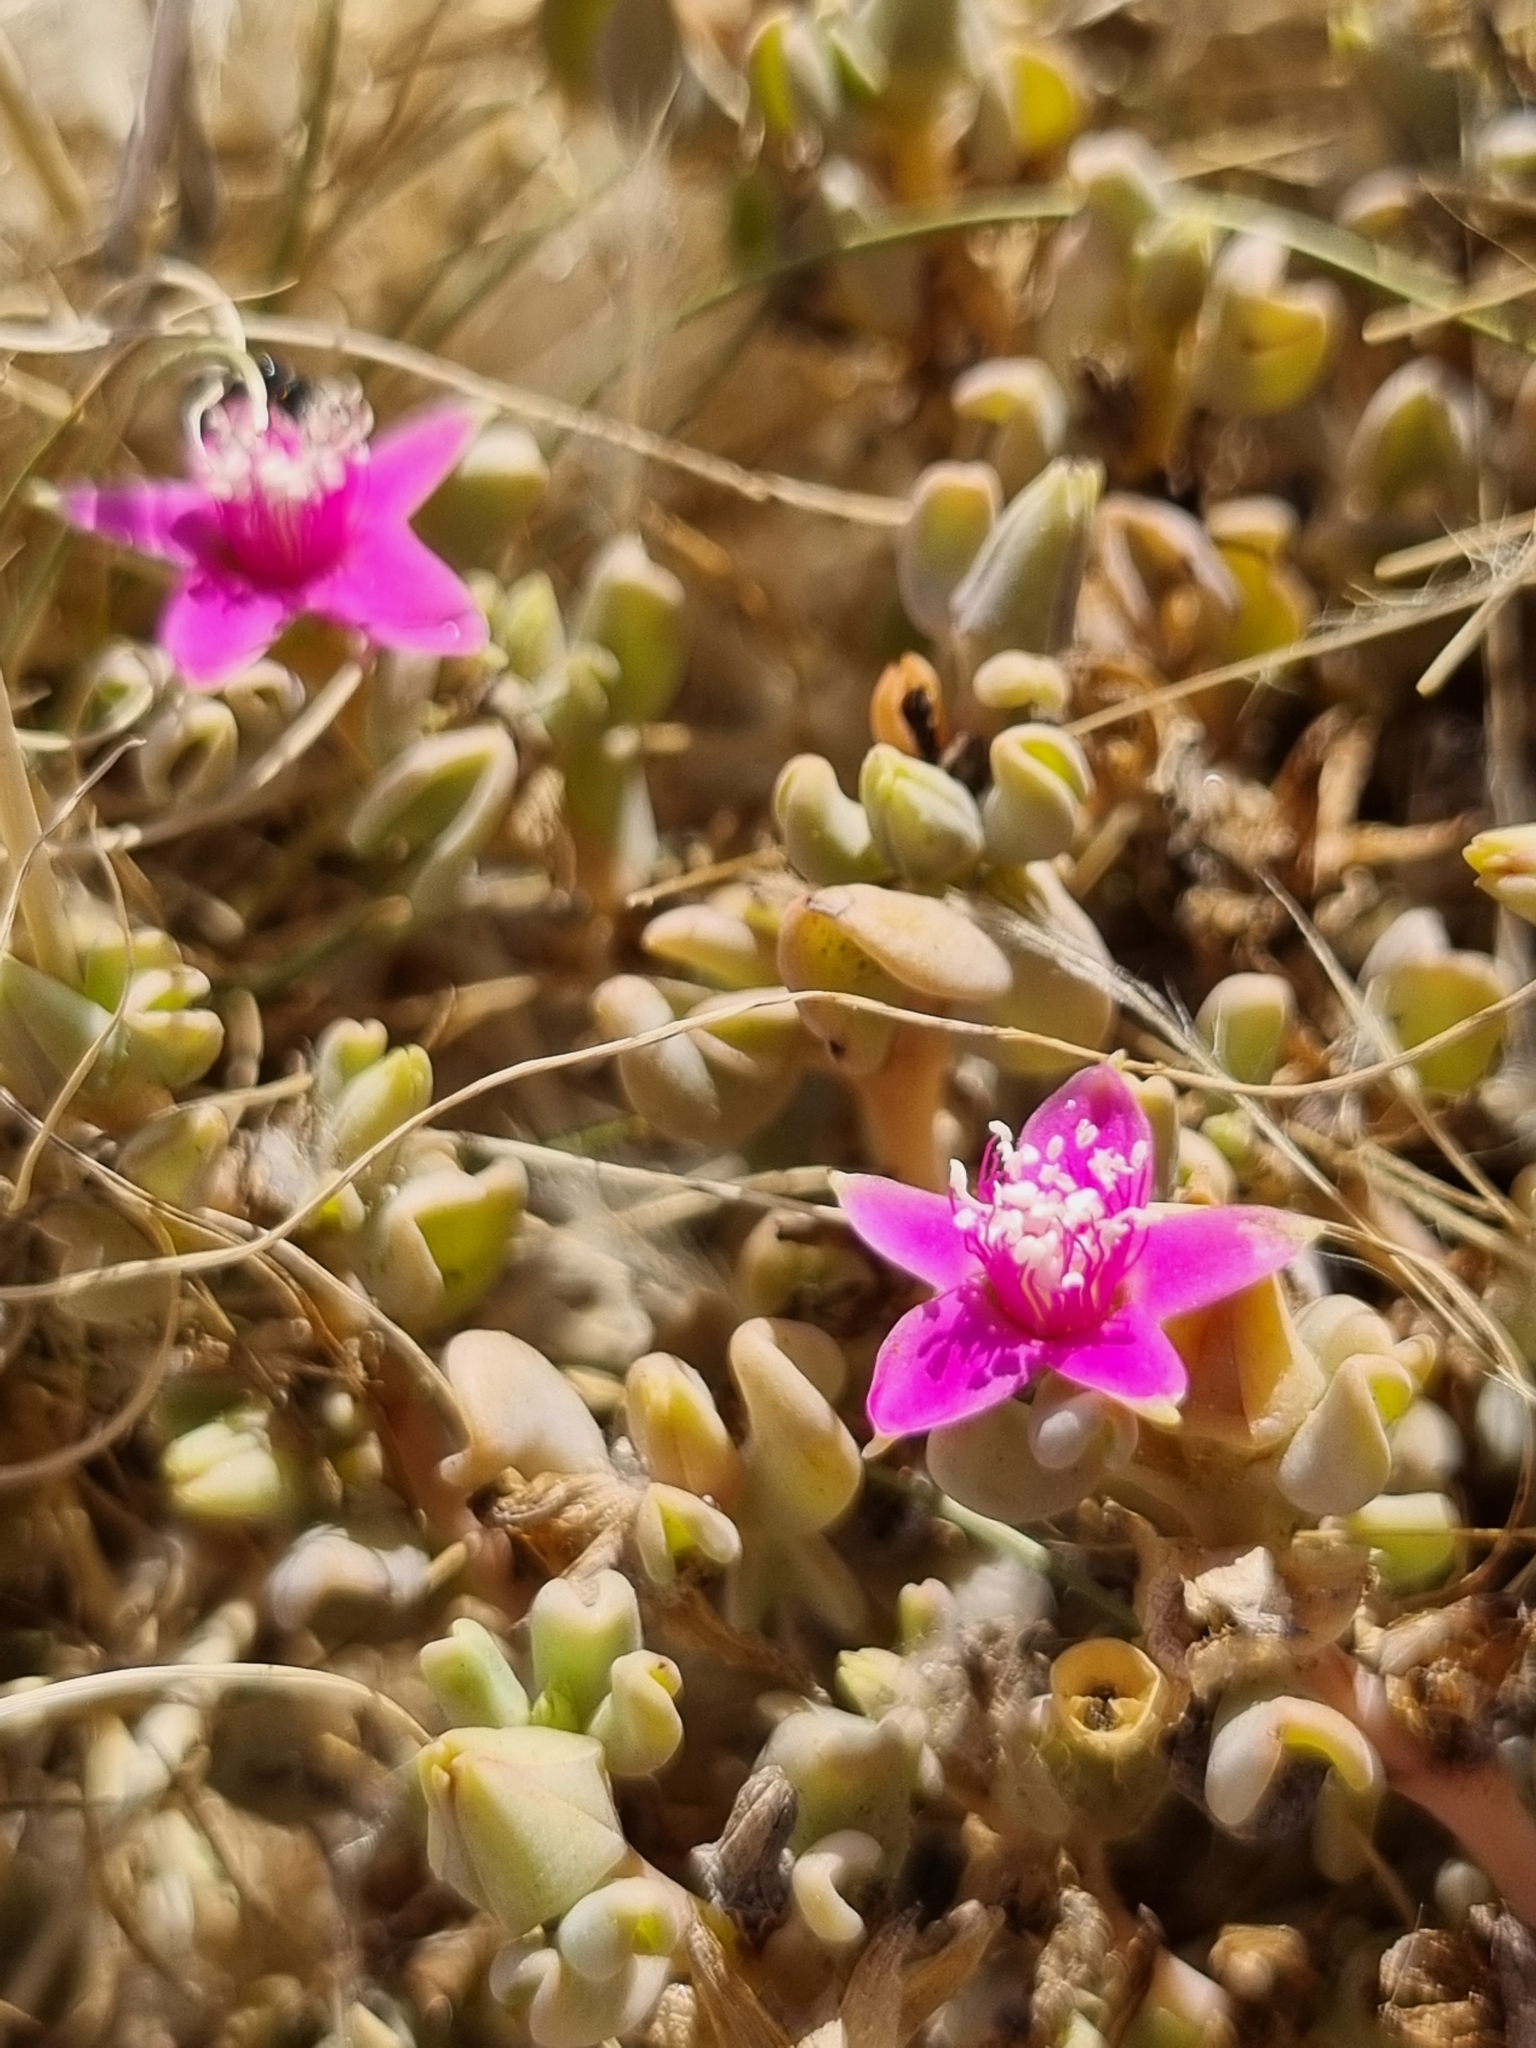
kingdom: Plantae
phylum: Tracheophyta
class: Magnoliopsida
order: Caryophyllales
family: Aizoaceae
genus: Sesuvium
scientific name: Sesuvium sesuvioides
